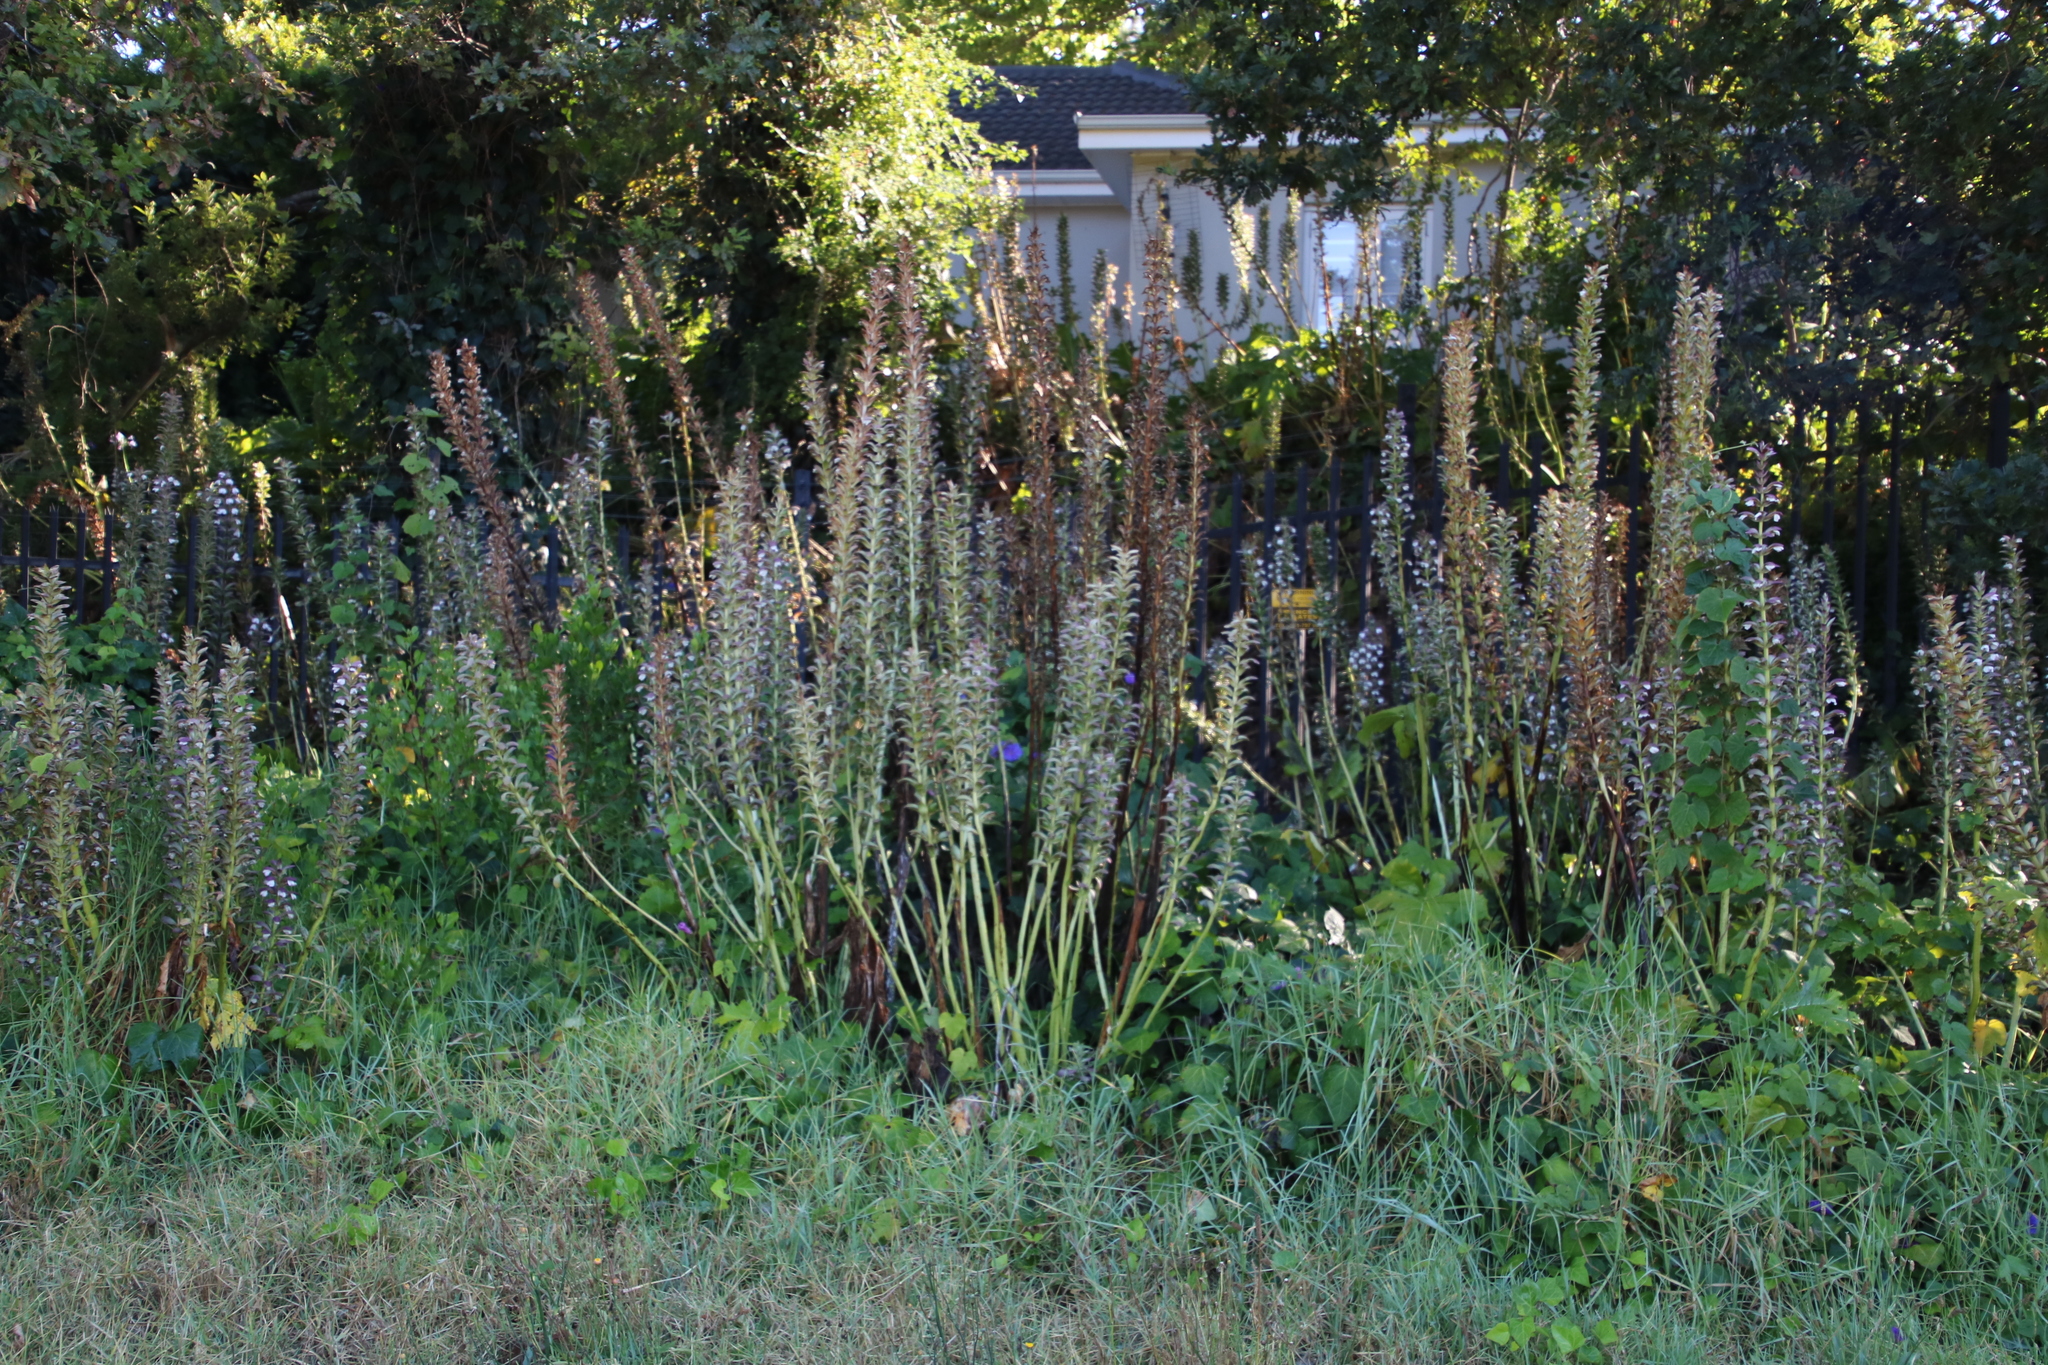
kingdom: Plantae
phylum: Tracheophyta
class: Magnoliopsida
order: Lamiales
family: Acanthaceae
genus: Acanthus
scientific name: Acanthus mollis
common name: Bear's-breech
